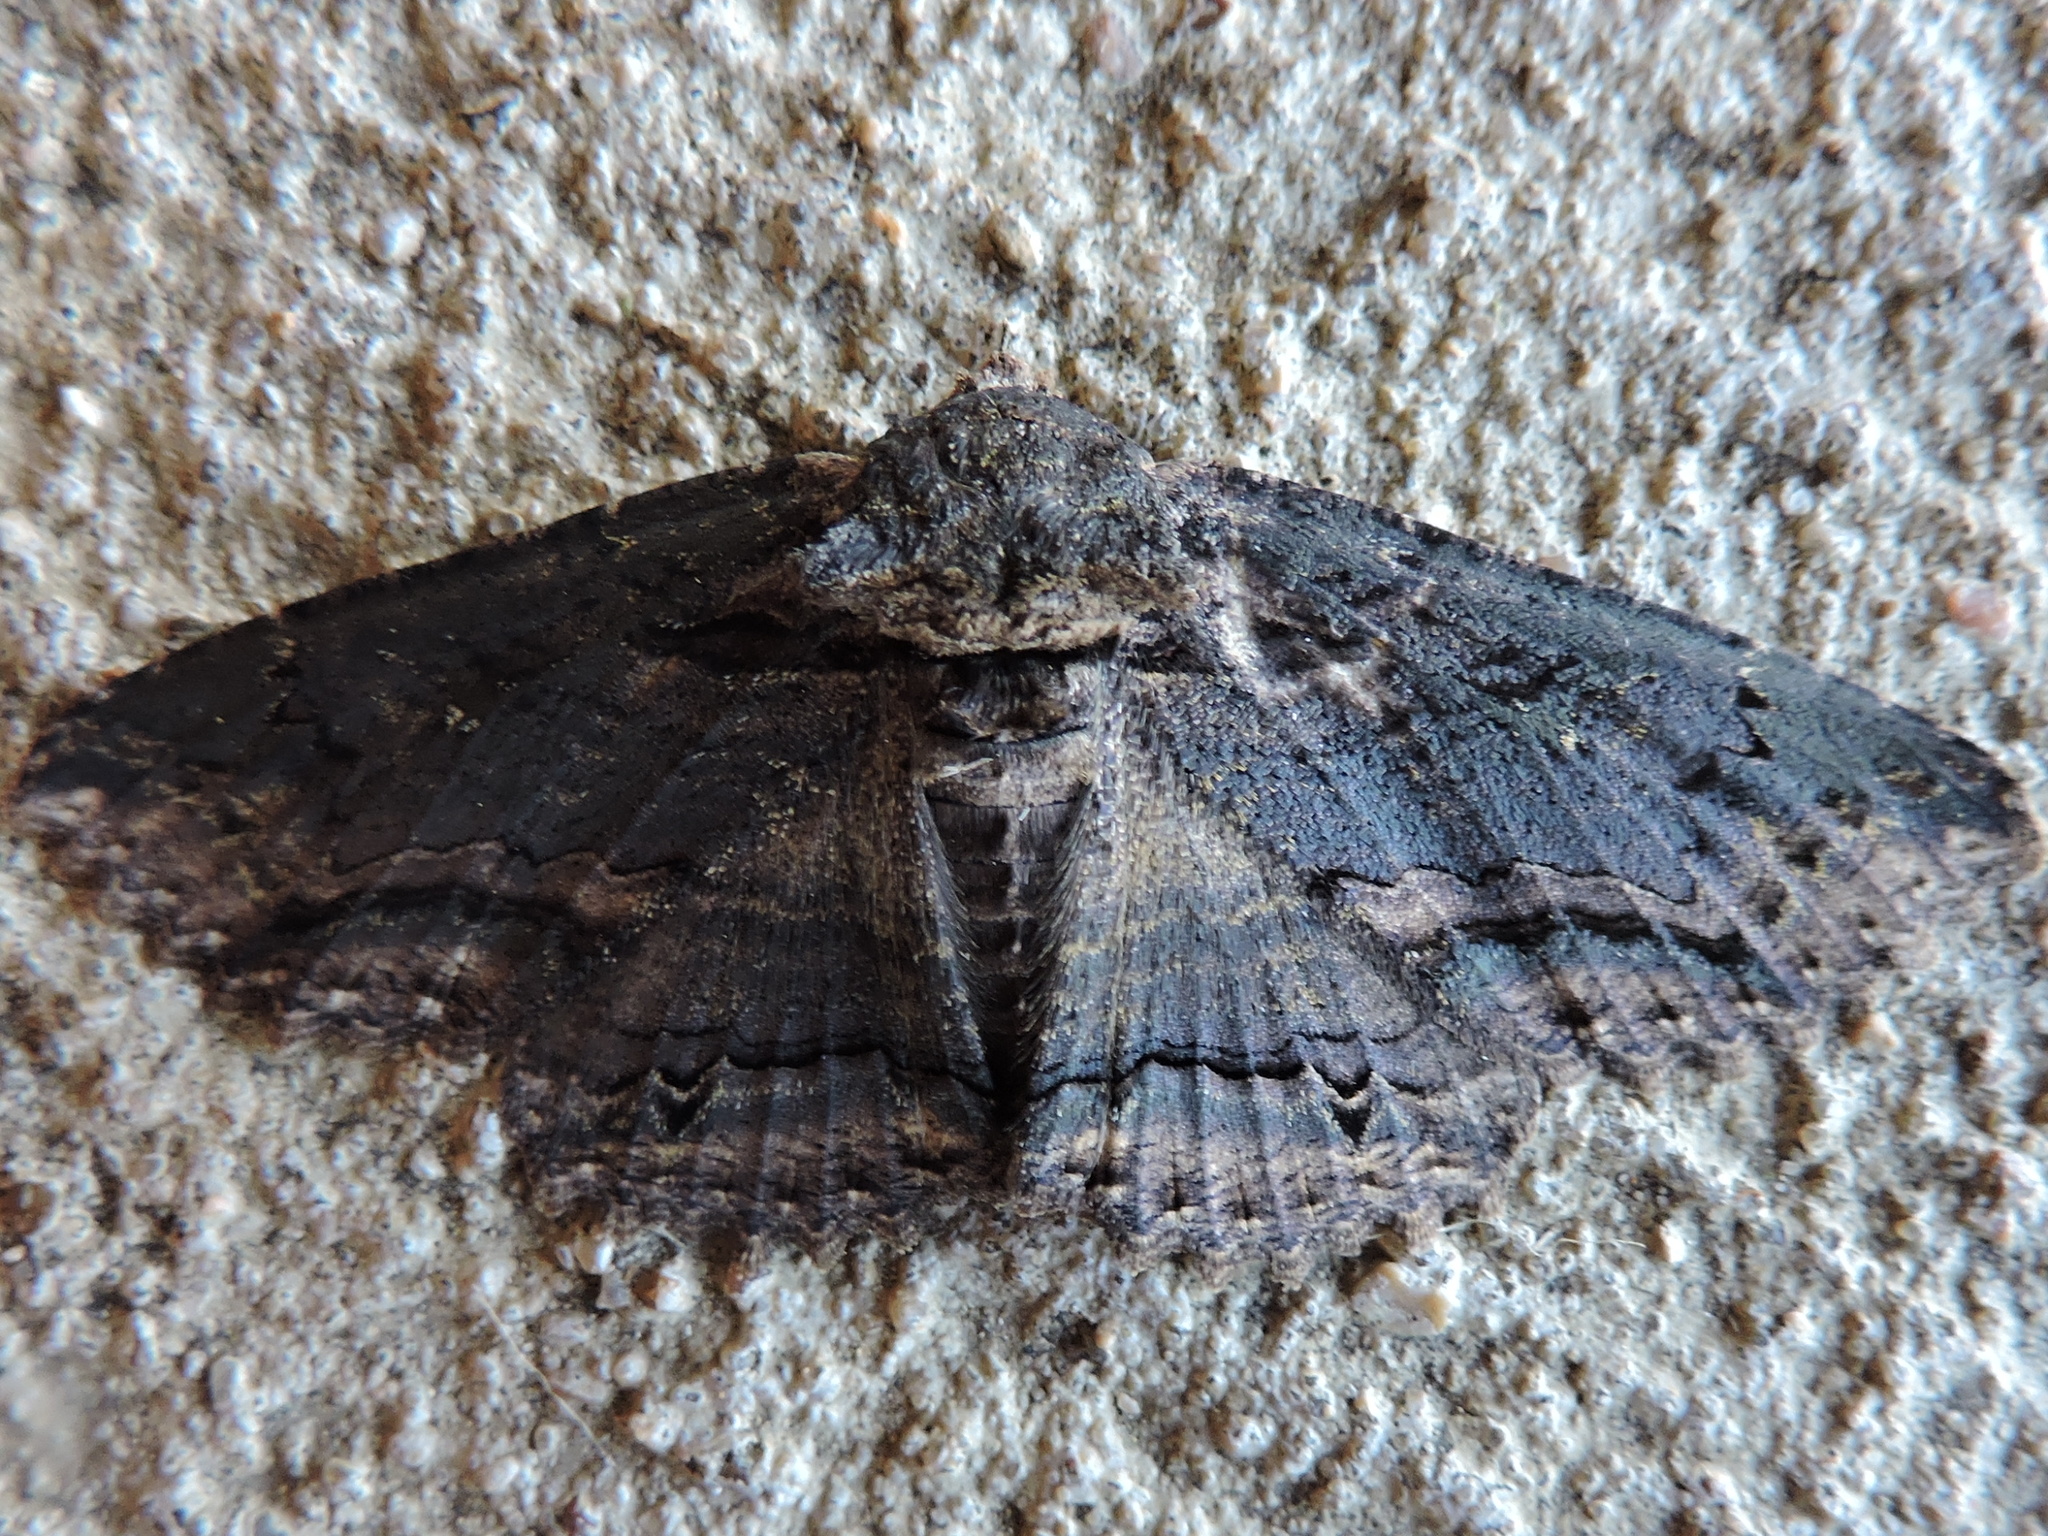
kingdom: Animalia
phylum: Arthropoda
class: Insecta
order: Lepidoptera
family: Erebidae
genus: Zale
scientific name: Zale lunata
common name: Lunate zale moth
